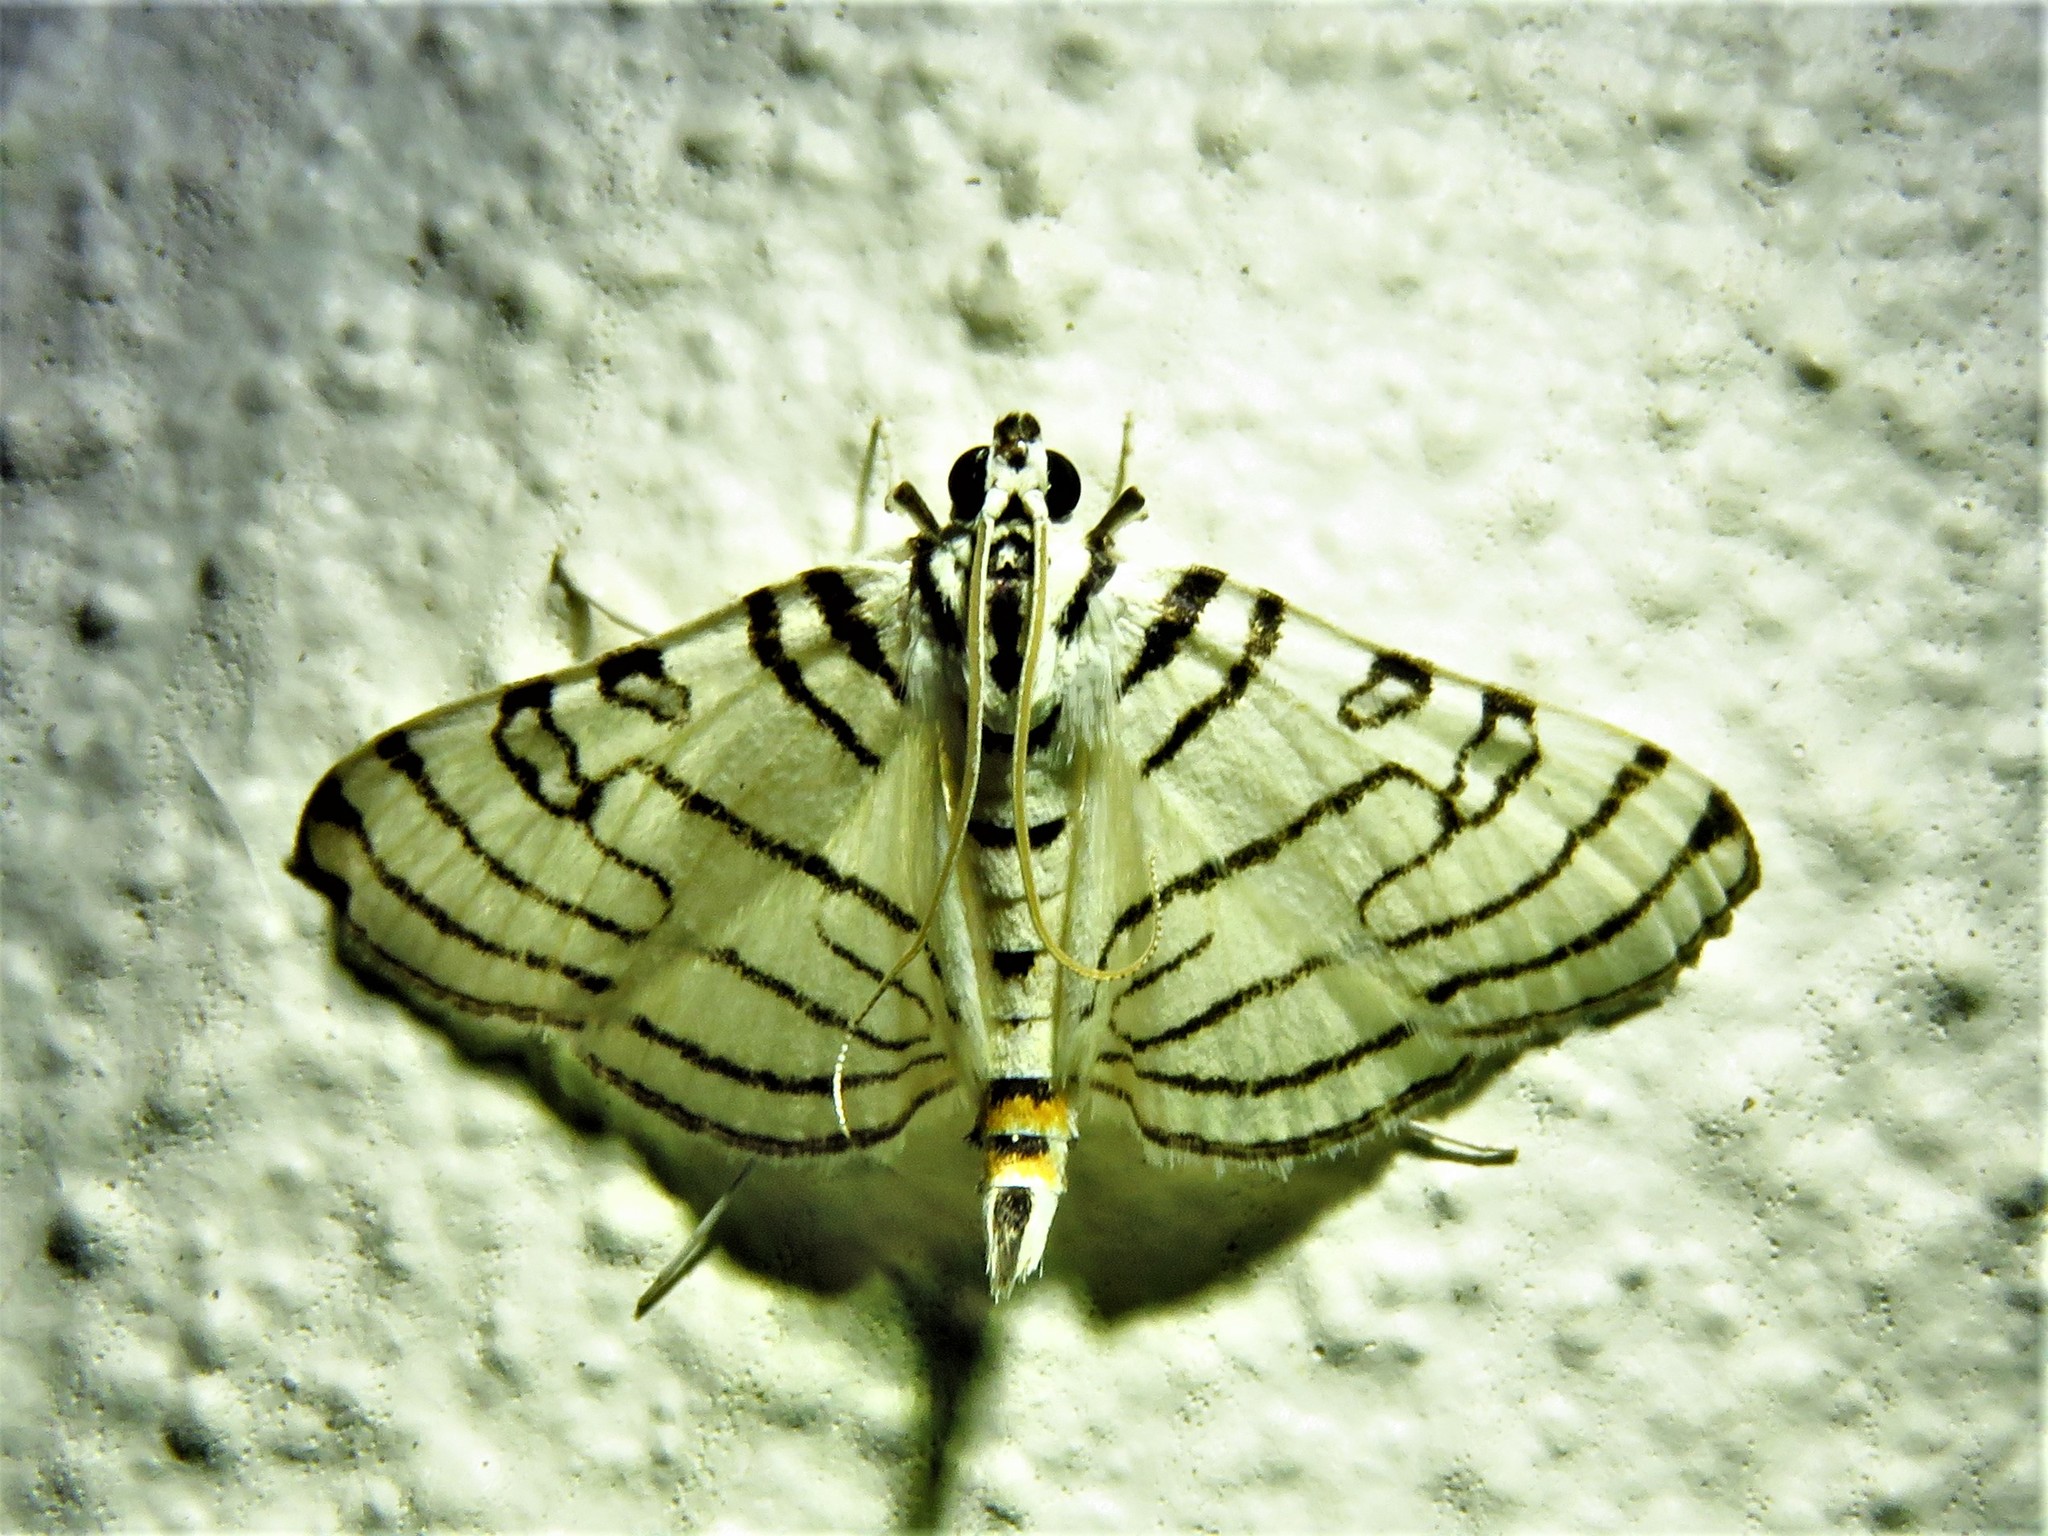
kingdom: Animalia
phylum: Arthropoda
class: Insecta
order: Lepidoptera
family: Crambidae
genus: Conchylodes
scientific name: Conchylodes concinnalis
